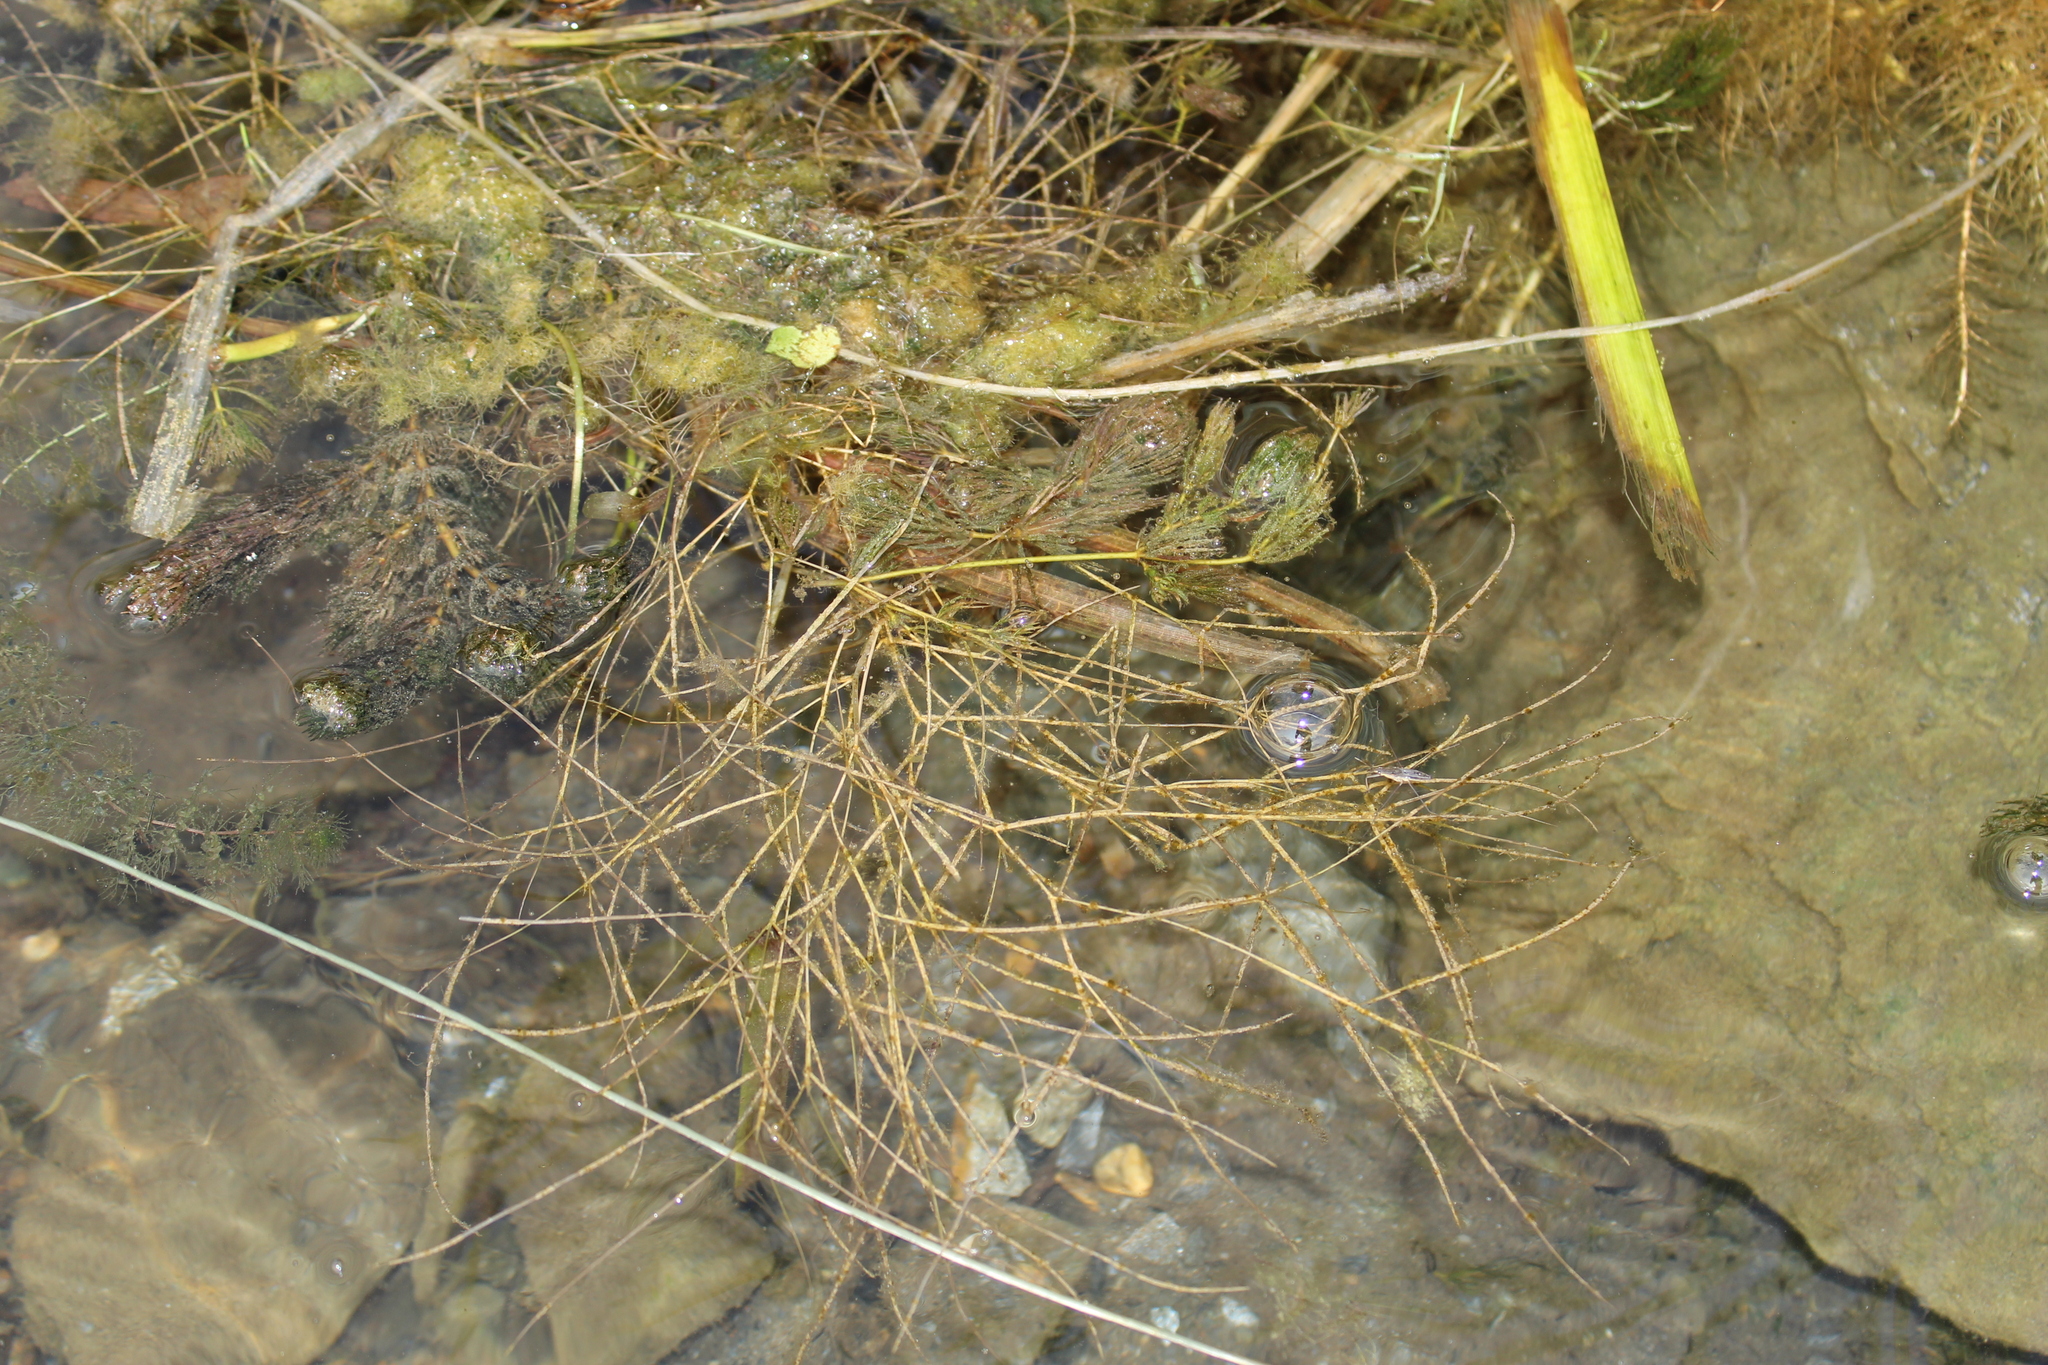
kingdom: Plantae
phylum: Tracheophyta
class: Liliopsida
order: Alismatales
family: Potamogetonaceae
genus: Stuckenia
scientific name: Stuckenia pectinata
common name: Sago pondweed
